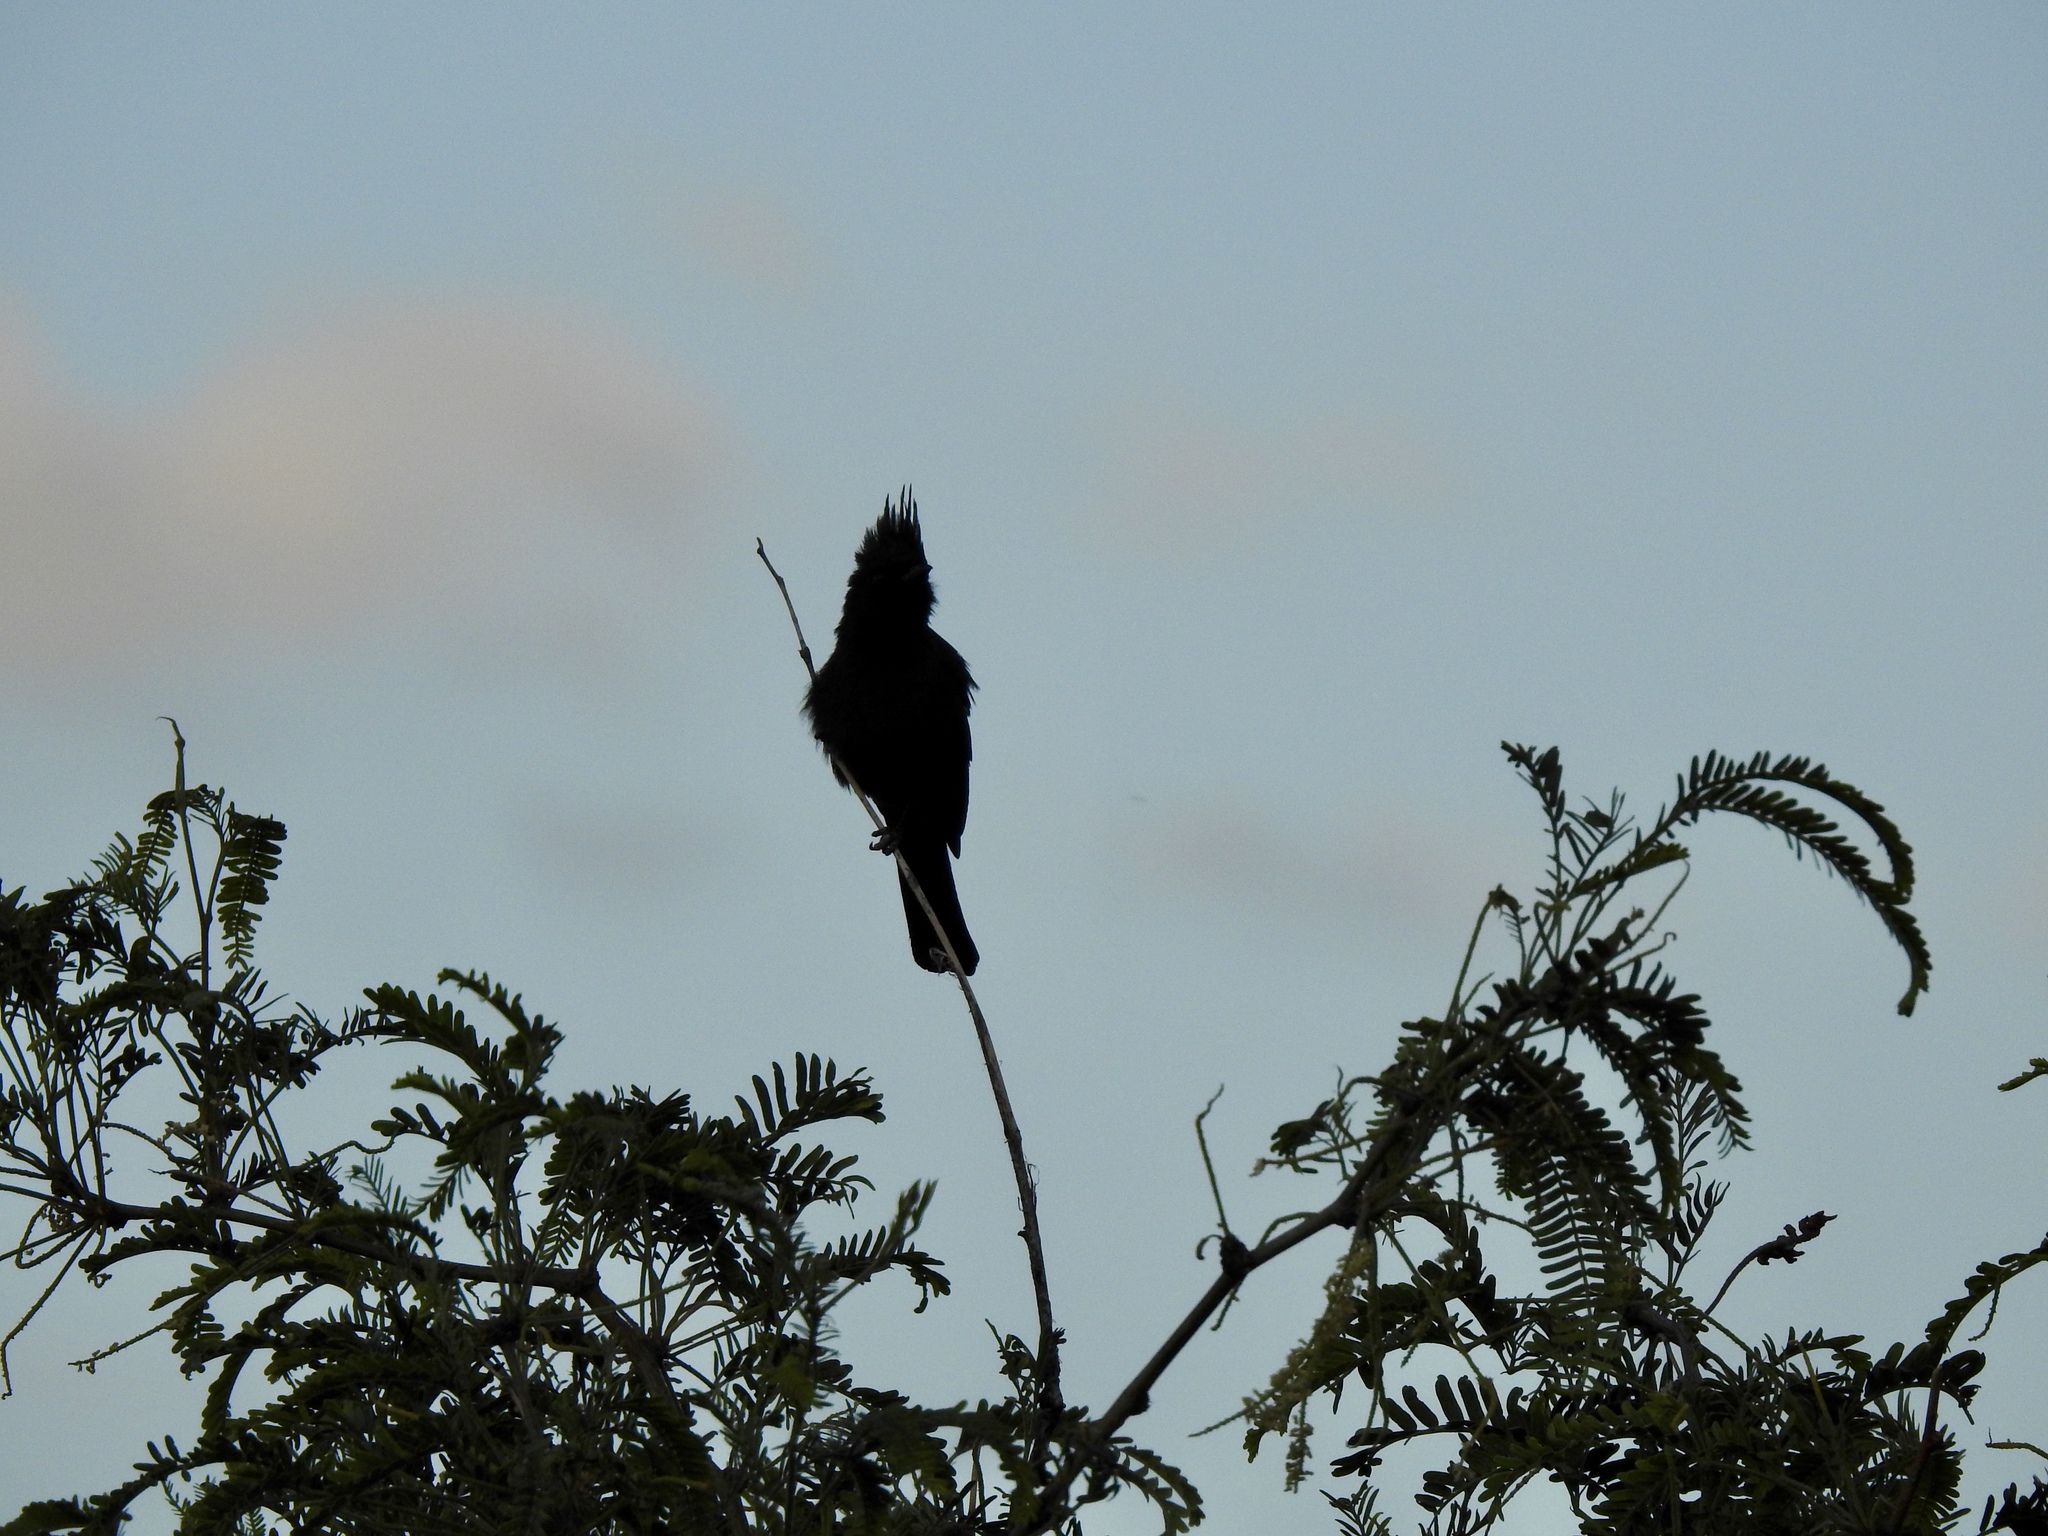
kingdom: Animalia
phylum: Chordata
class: Aves
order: Passeriformes
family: Ptilogonatidae
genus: Phainopepla
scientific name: Phainopepla nitens
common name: Phainopepla
